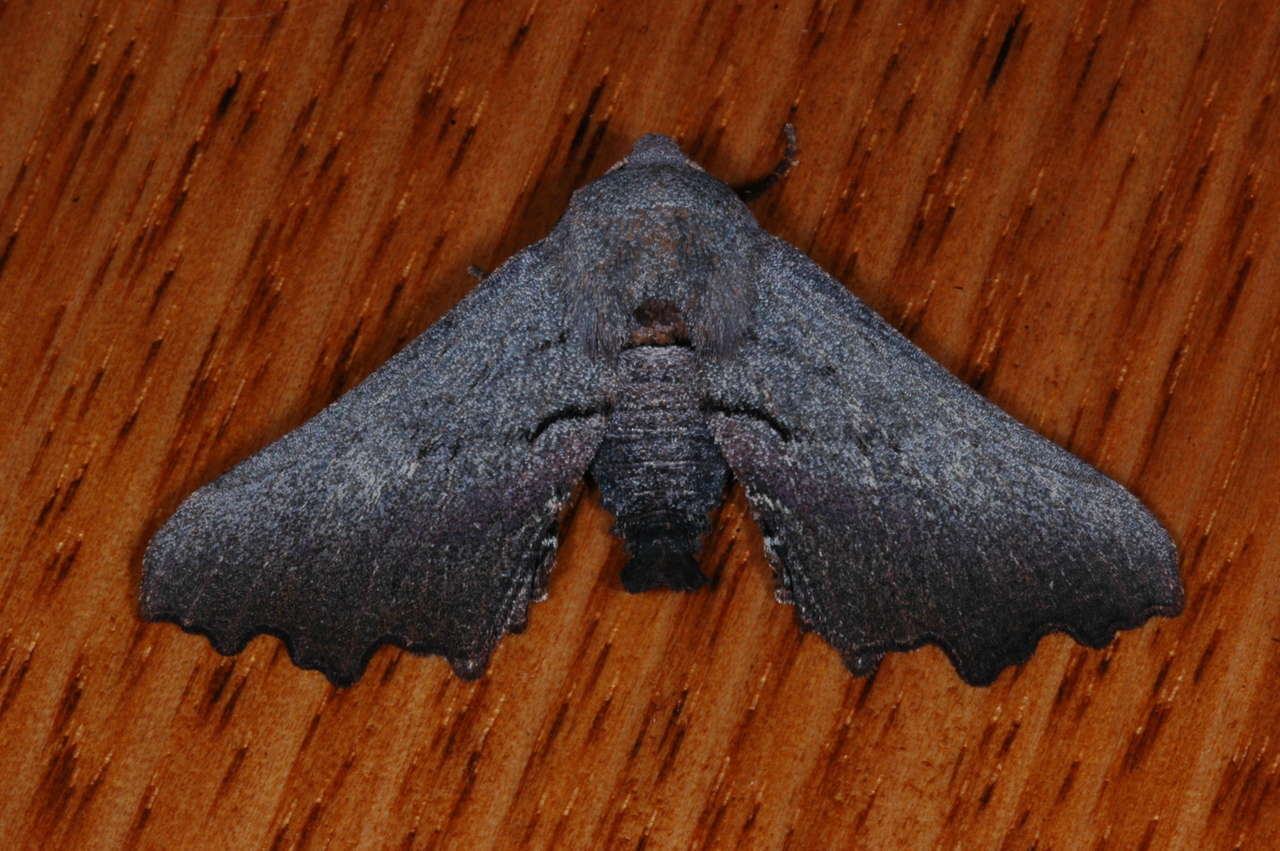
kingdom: Animalia
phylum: Arthropoda
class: Insecta
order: Lepidoptera
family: Geometridae
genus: Amphiclasta
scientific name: Amphiclasta lygaea
